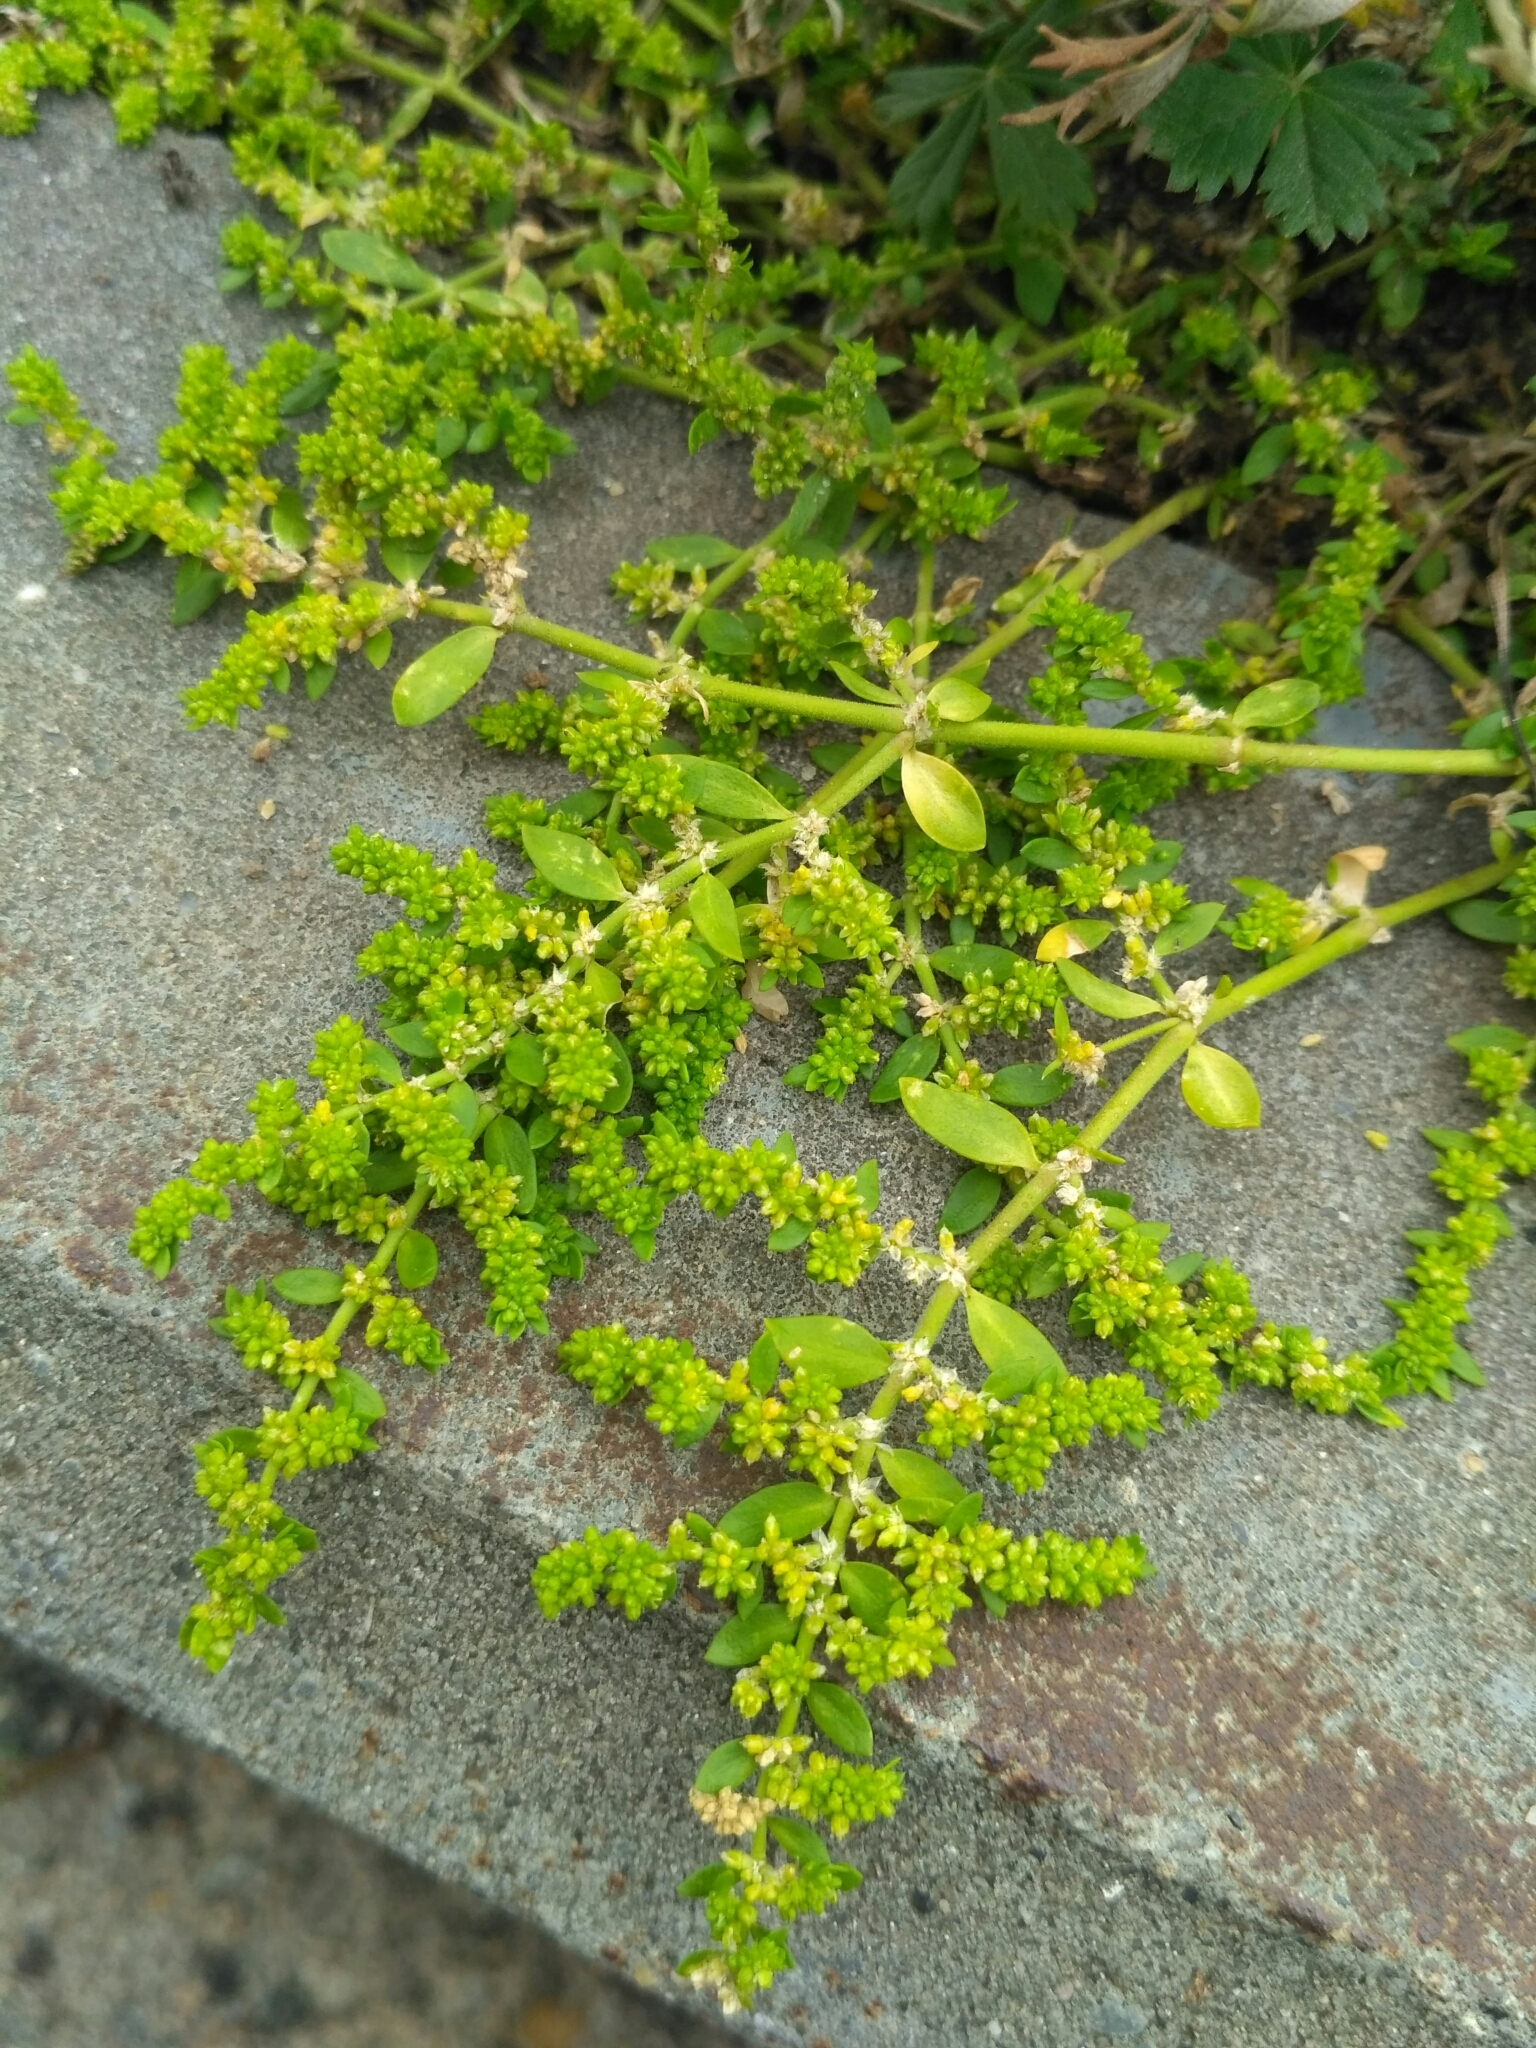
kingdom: Plantae
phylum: Tracheophyta
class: Magnoliopsida
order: Caryophyllales
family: Caryophyllaceae
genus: Herniaria
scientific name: Herniaria glabra
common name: Smooth rupturewort
